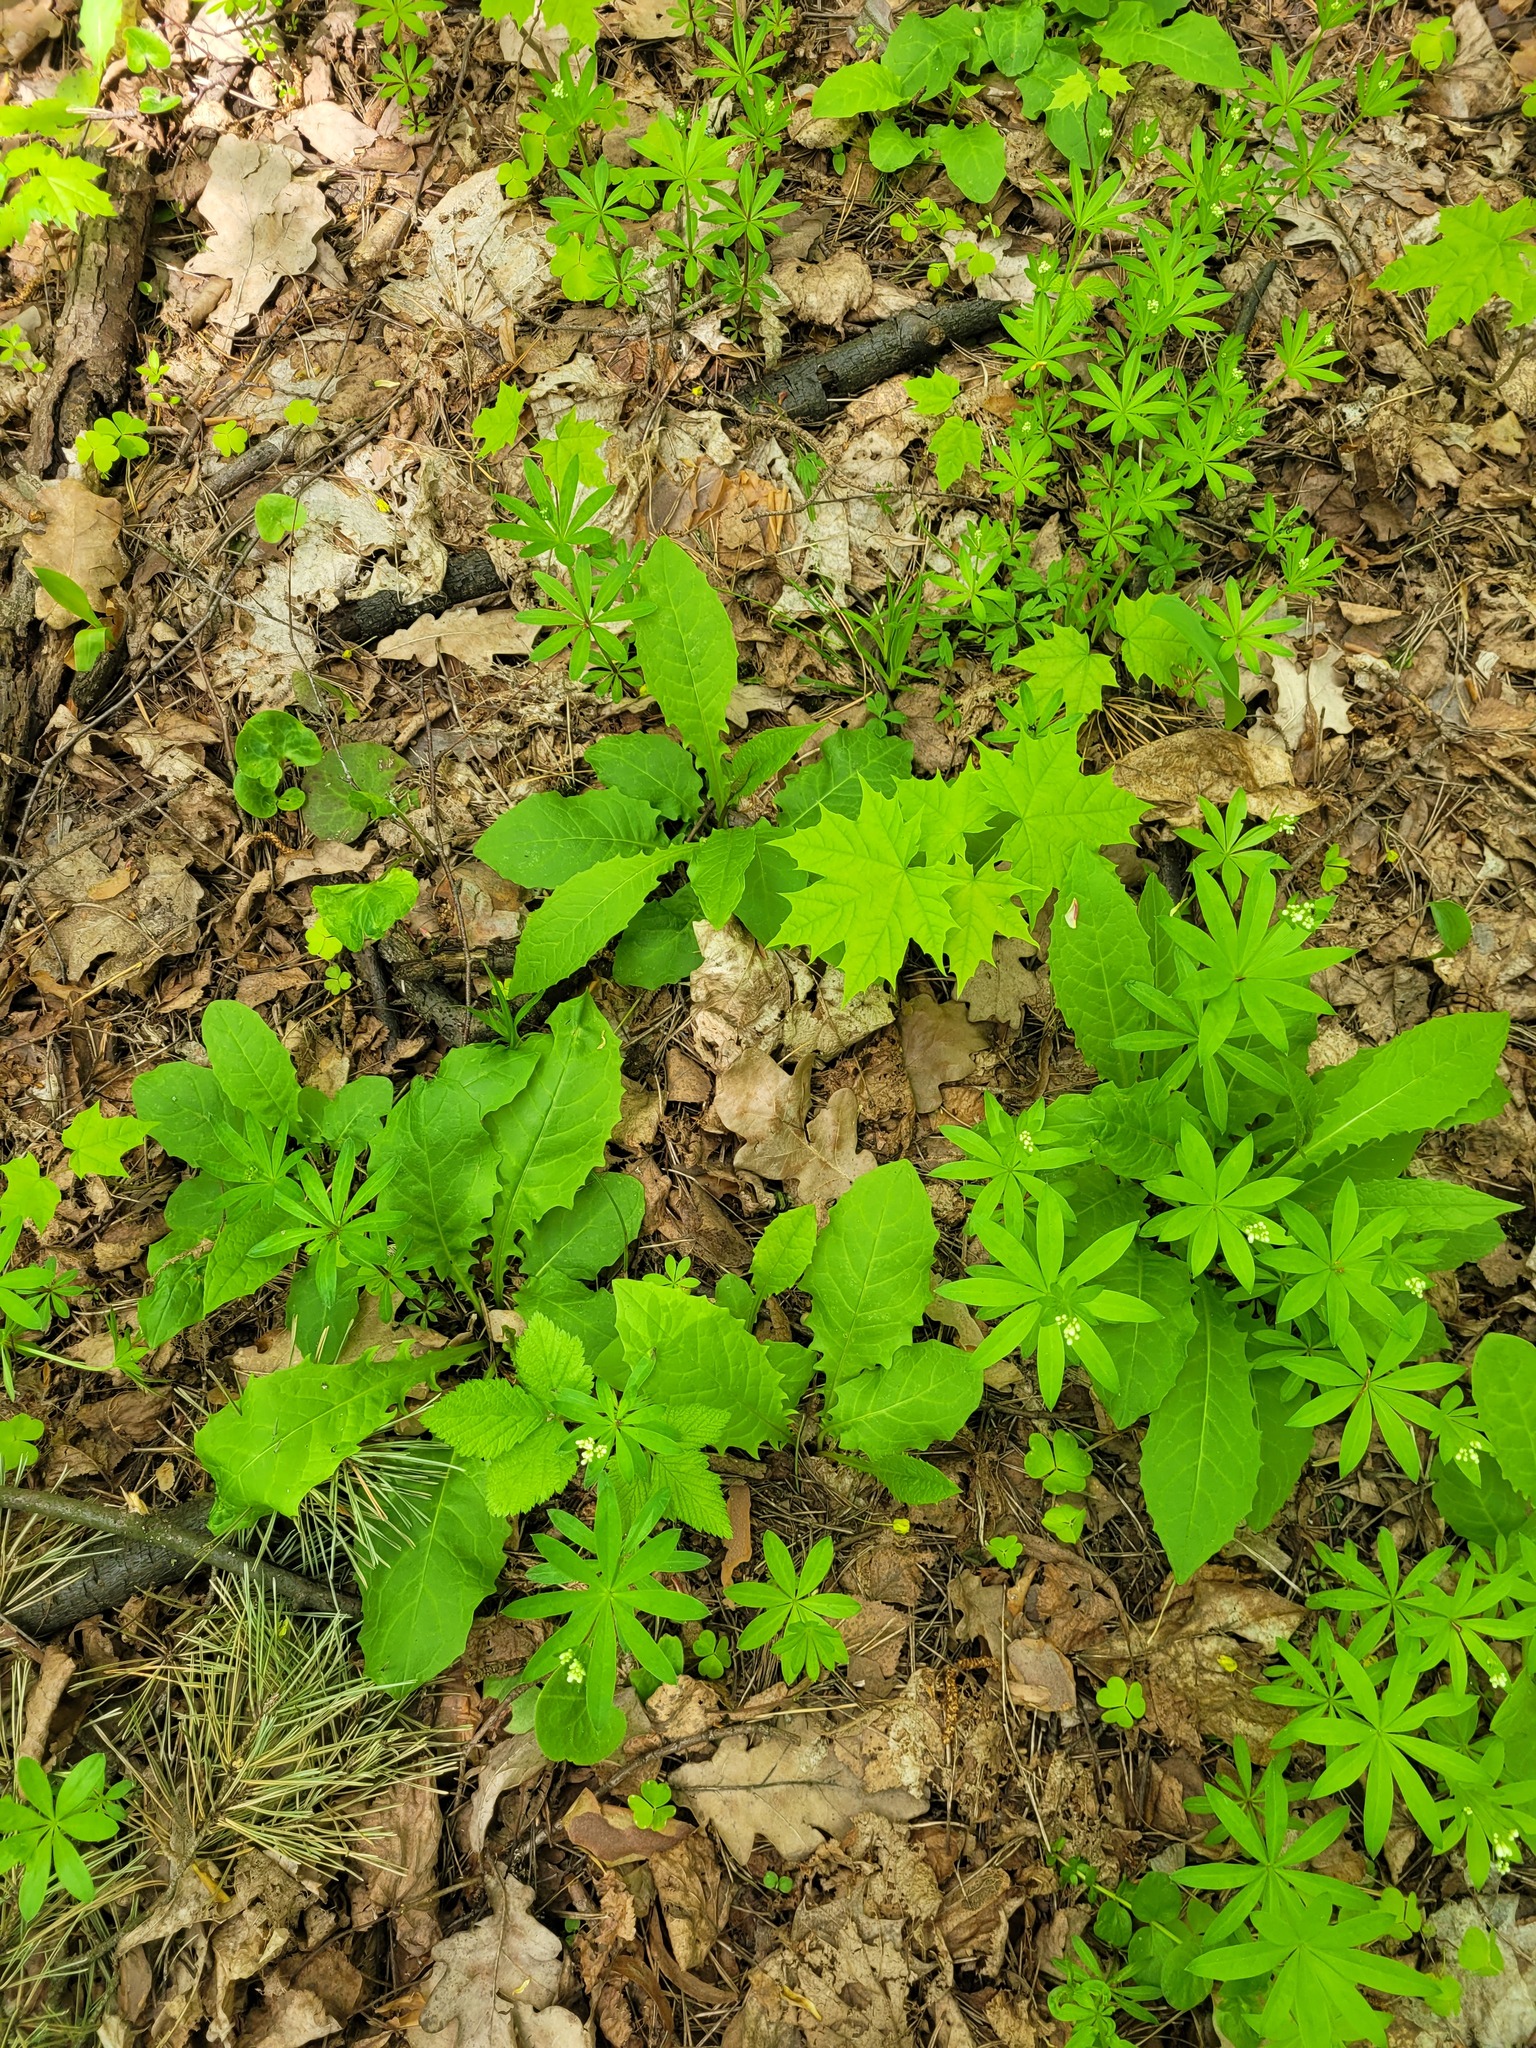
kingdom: Plantae
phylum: Tracheophyta
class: Magnoliopsida
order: Asterales
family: Asteraceae
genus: Crepis
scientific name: Crepis paludosa
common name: Marsh hawk's-beard
